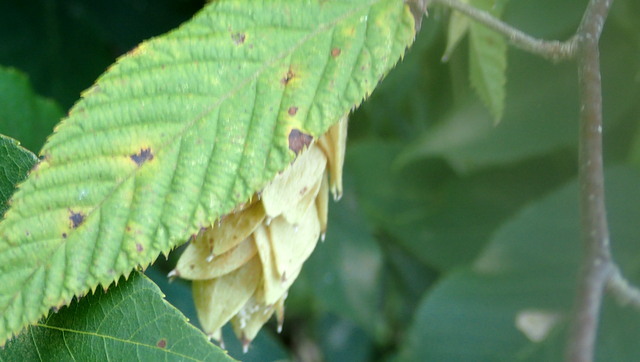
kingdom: Plantae
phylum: Tracheophyta
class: Magnoliopsida
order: Fagales
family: Betulaceae
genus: Ostrya
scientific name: Ostrya virginiana
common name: Ironwood
